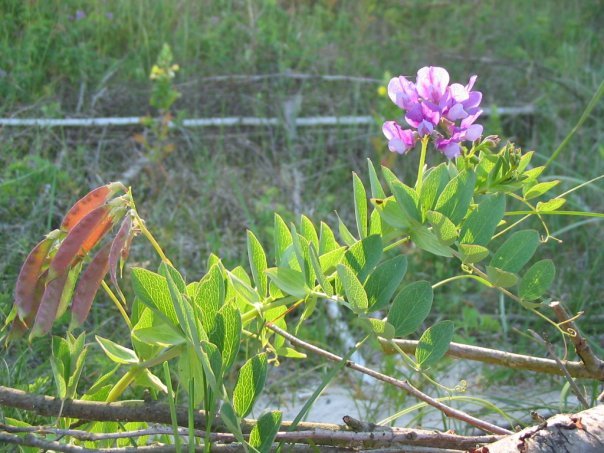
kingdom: Plantae
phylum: Tracheophyta
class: Magnoliopsida
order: Fabales
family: Fabaceae
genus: Lathyrus
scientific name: Lathyrus japonicus
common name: Sea pea
